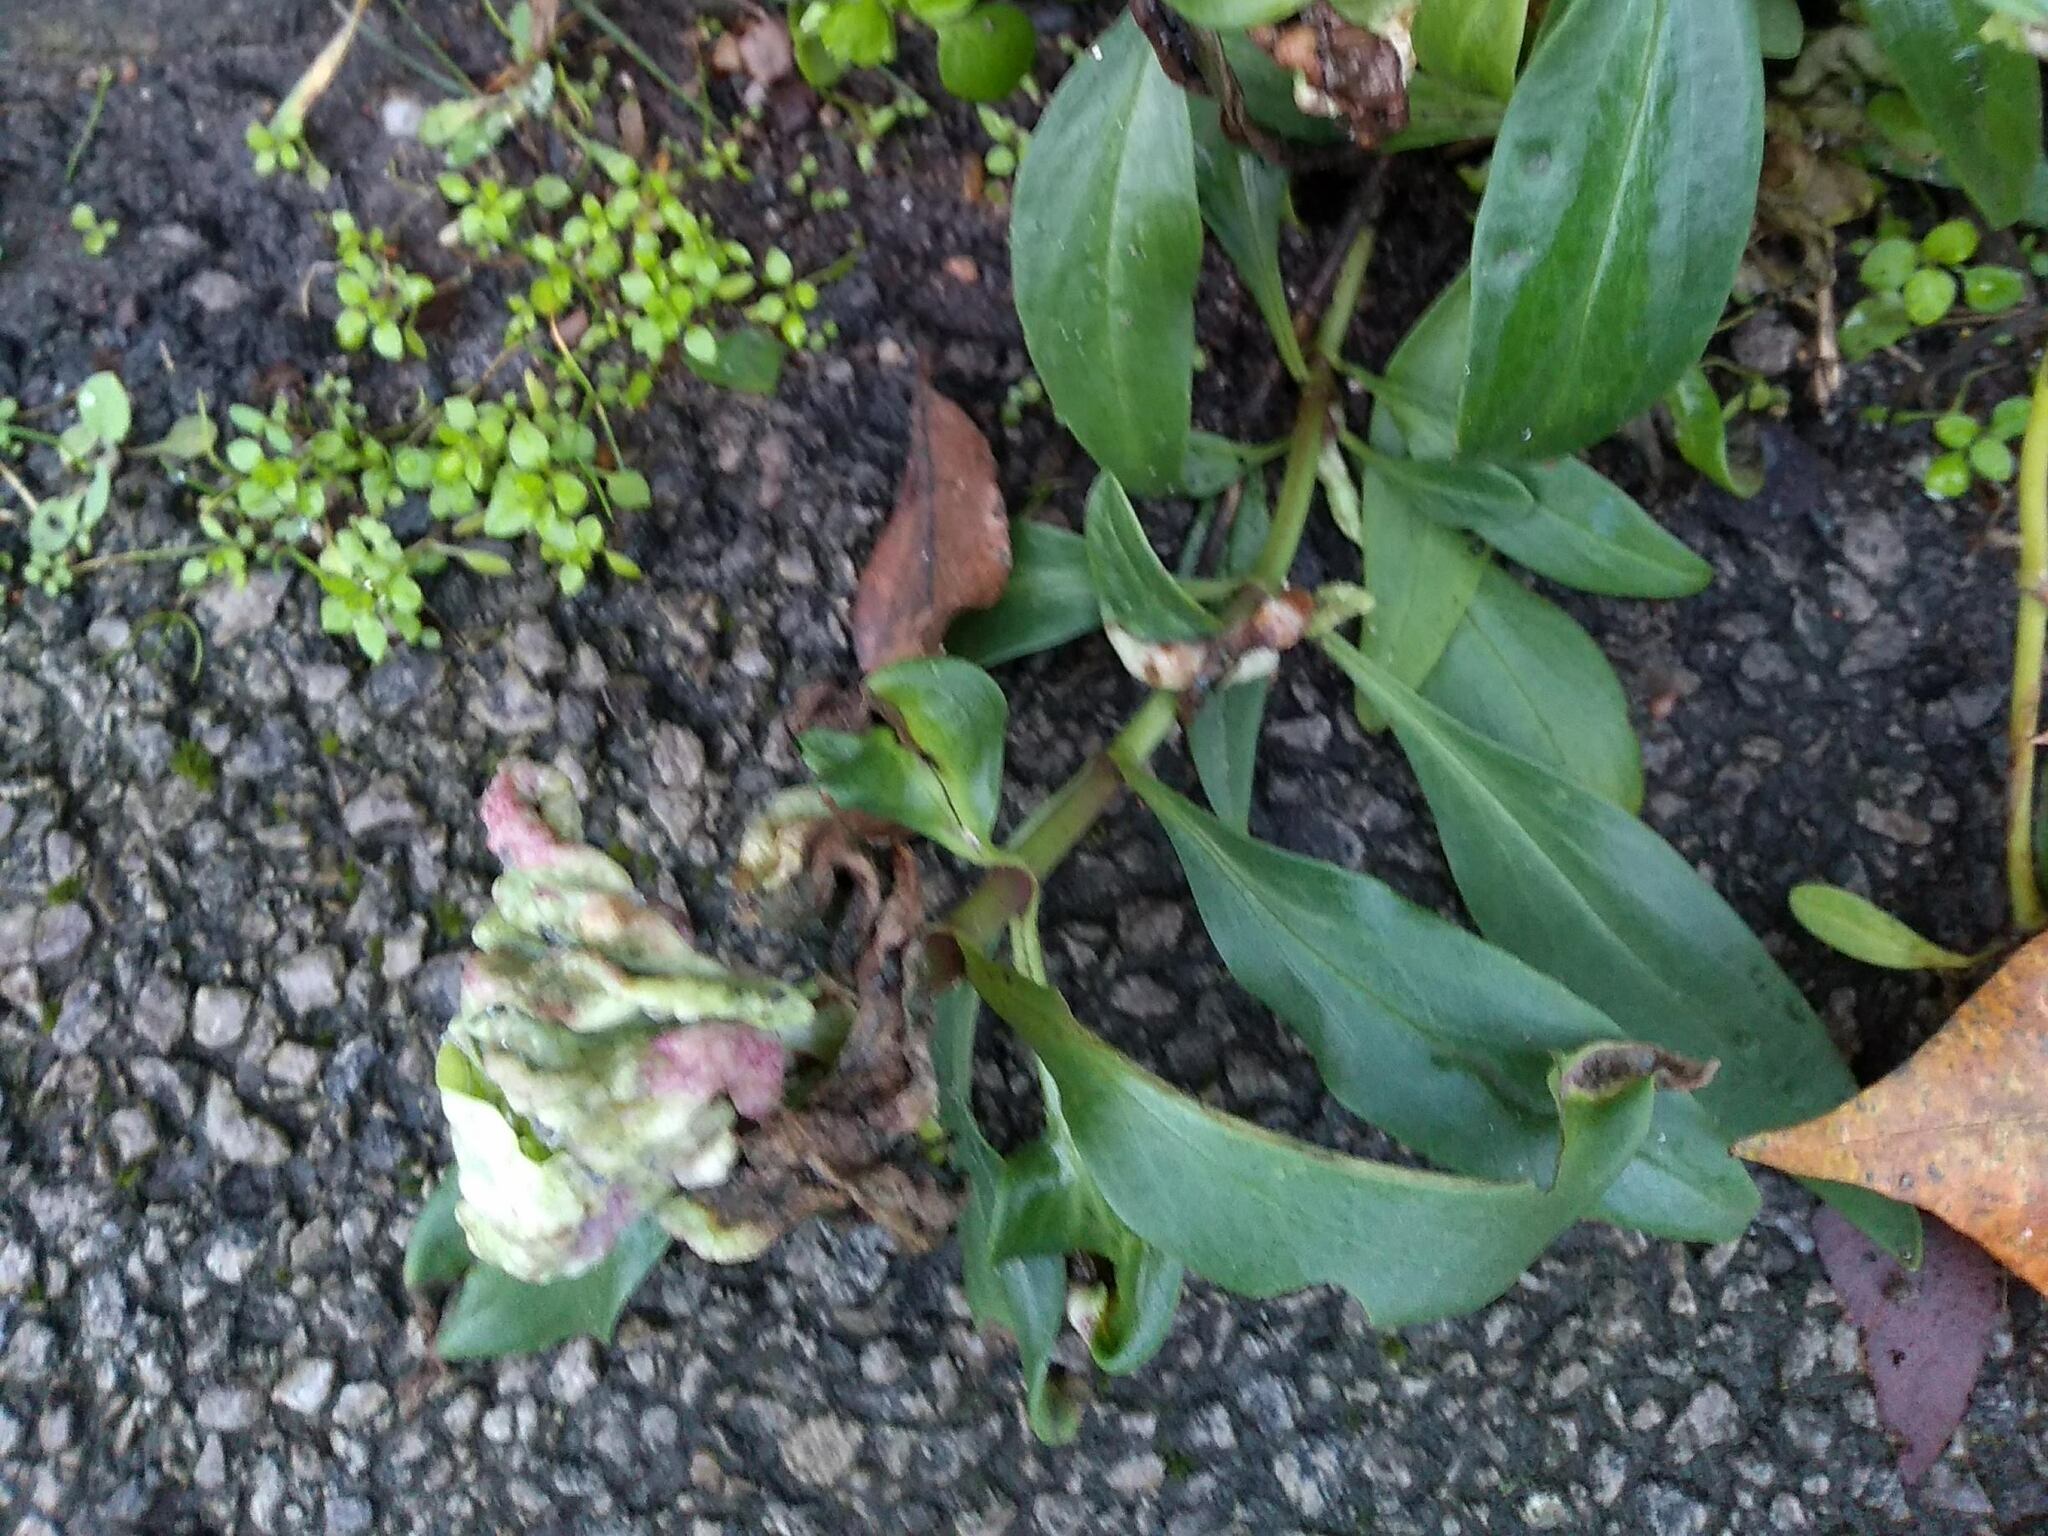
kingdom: Animalia
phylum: Arthropoda
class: Insecta
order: Hemiptera
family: Triozidae
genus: Trioza
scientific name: Trioza centranthi
